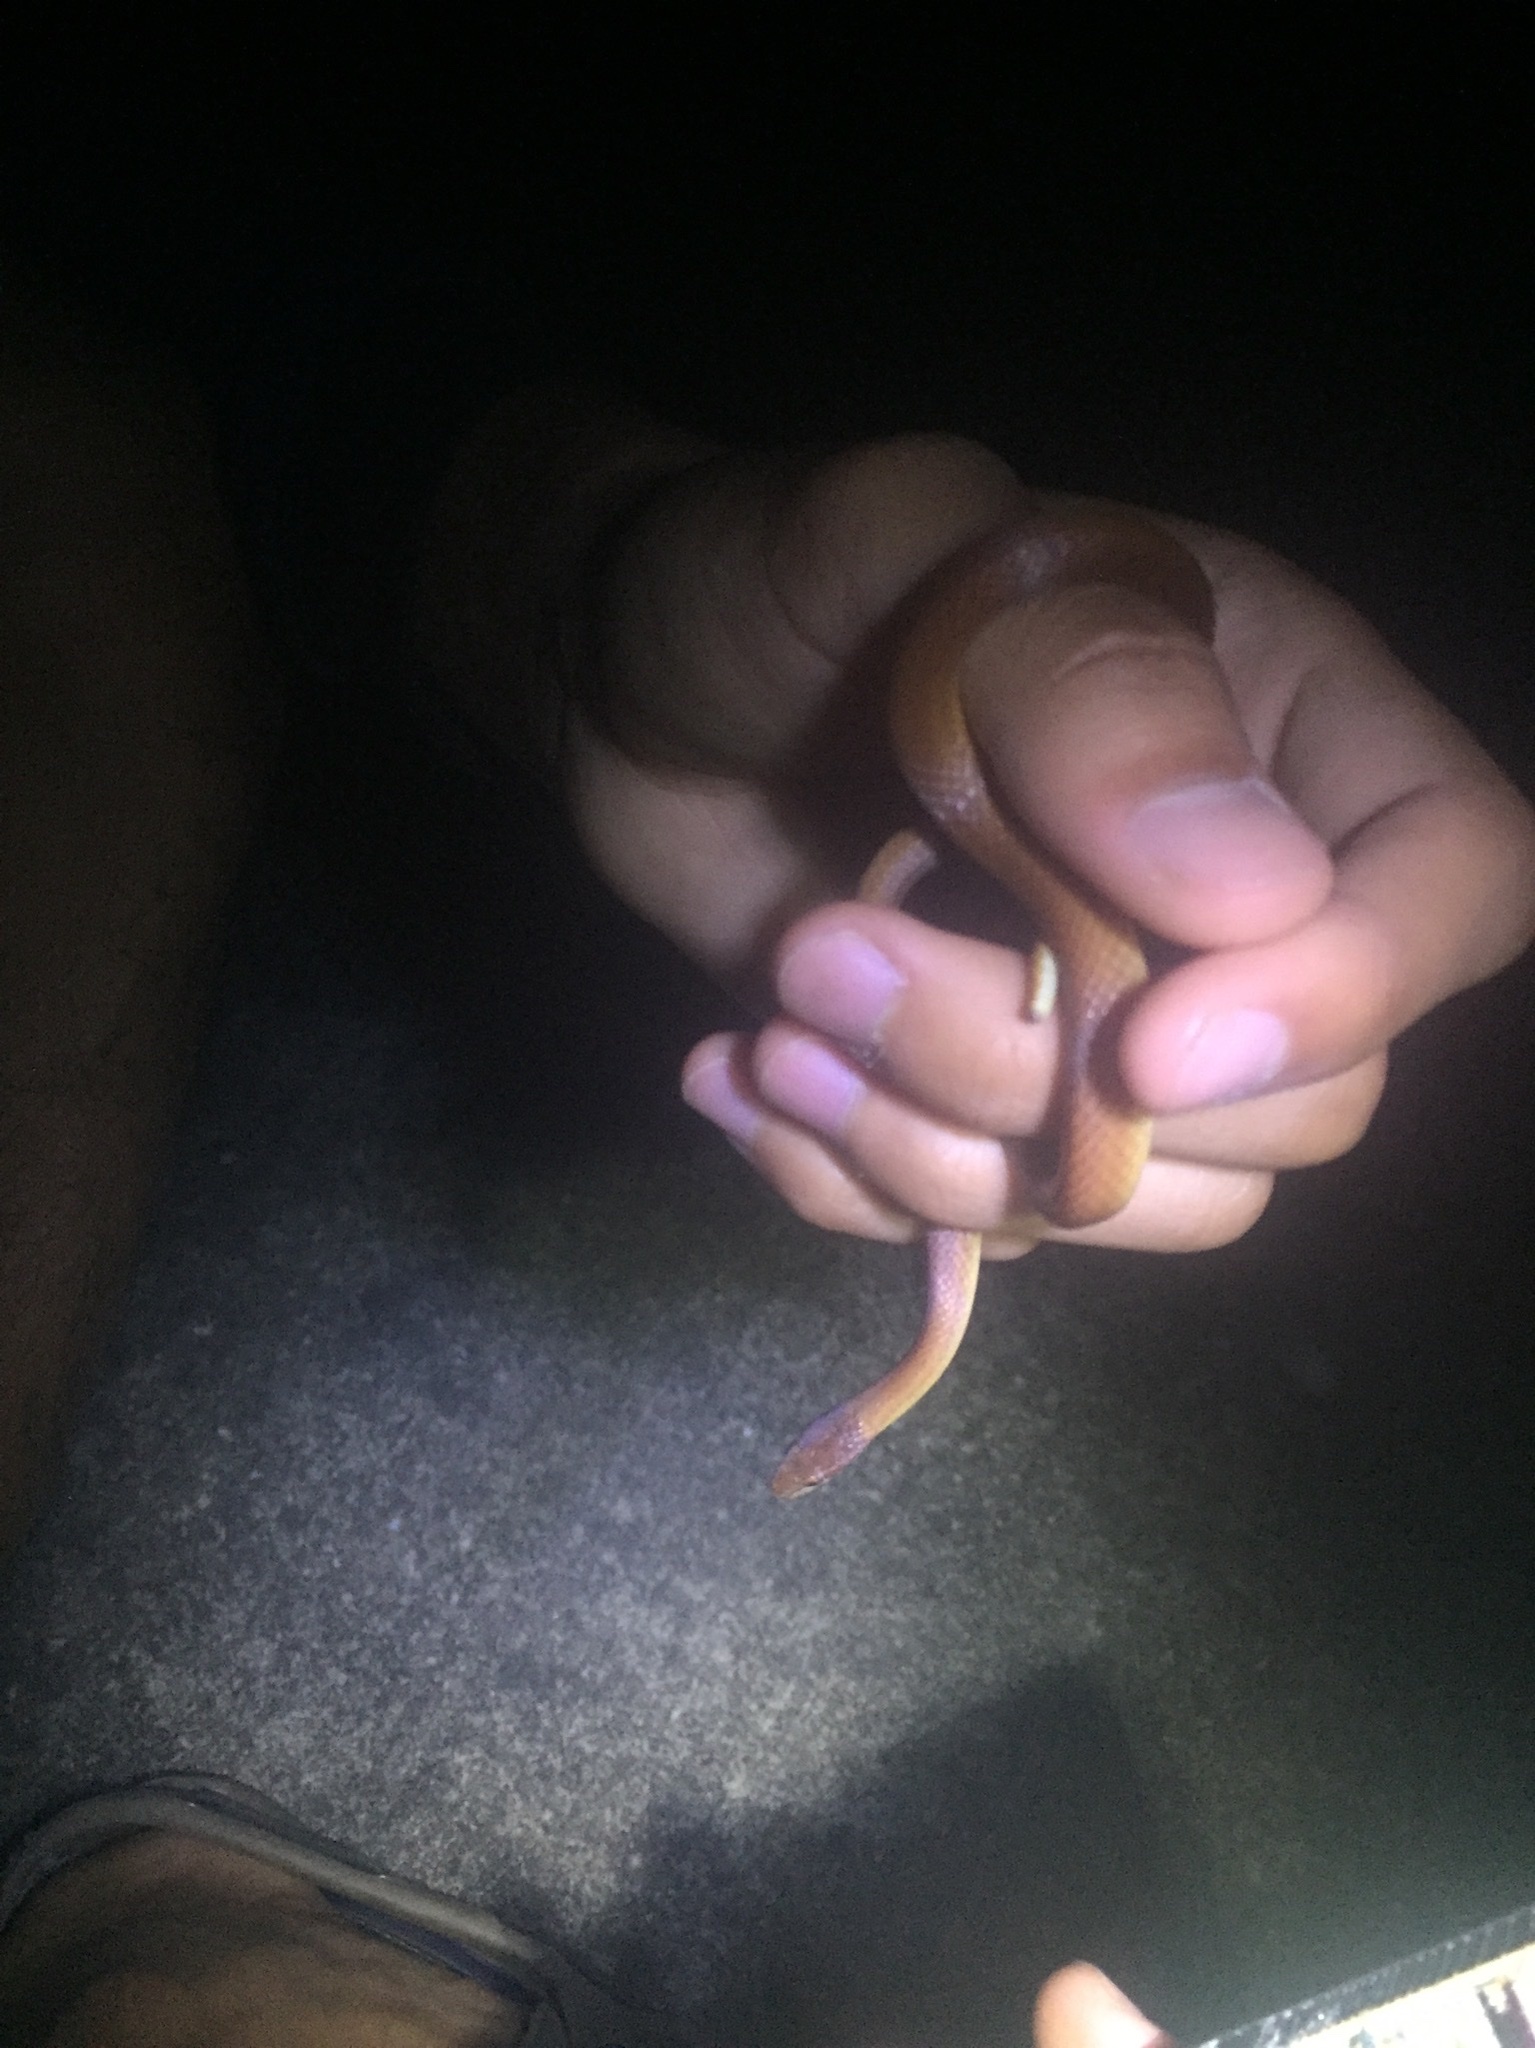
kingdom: Animalia
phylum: Chordata
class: Squamata
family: Colubridae
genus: Rhadinaea
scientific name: Rhadinaea flavilata
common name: Pine woods littersnake
